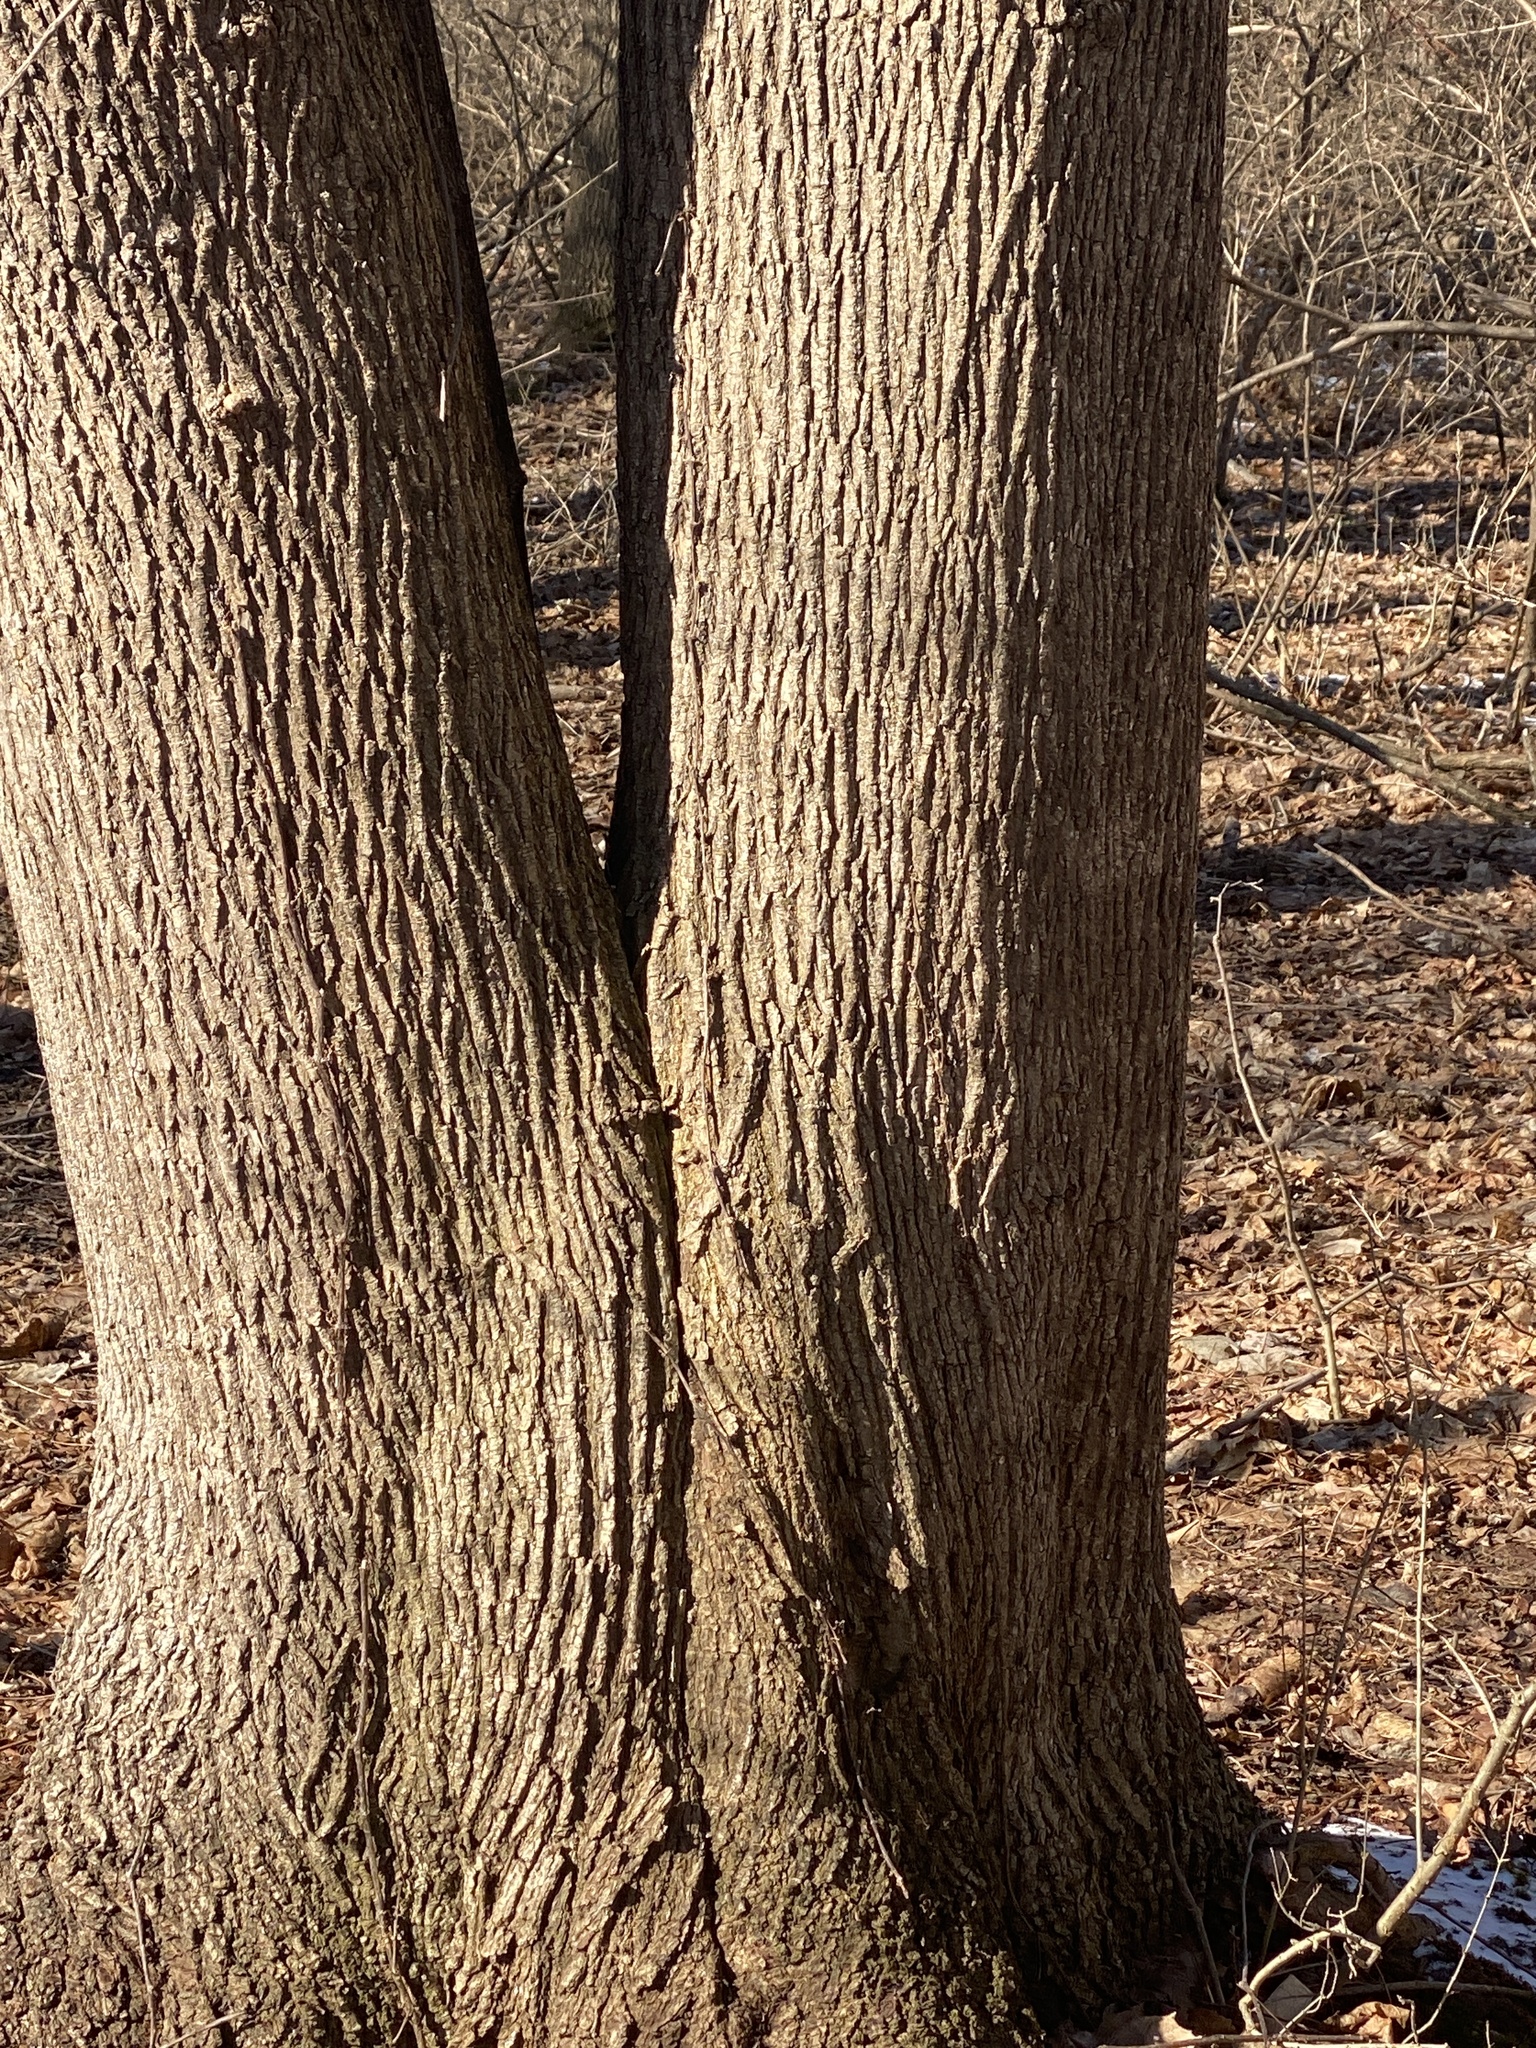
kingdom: Plantae
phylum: Tracheophyta
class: Magnoliopsida
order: Sapindales
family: Sapindaceae
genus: Acer
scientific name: Acer platanoides
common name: Norway maple
